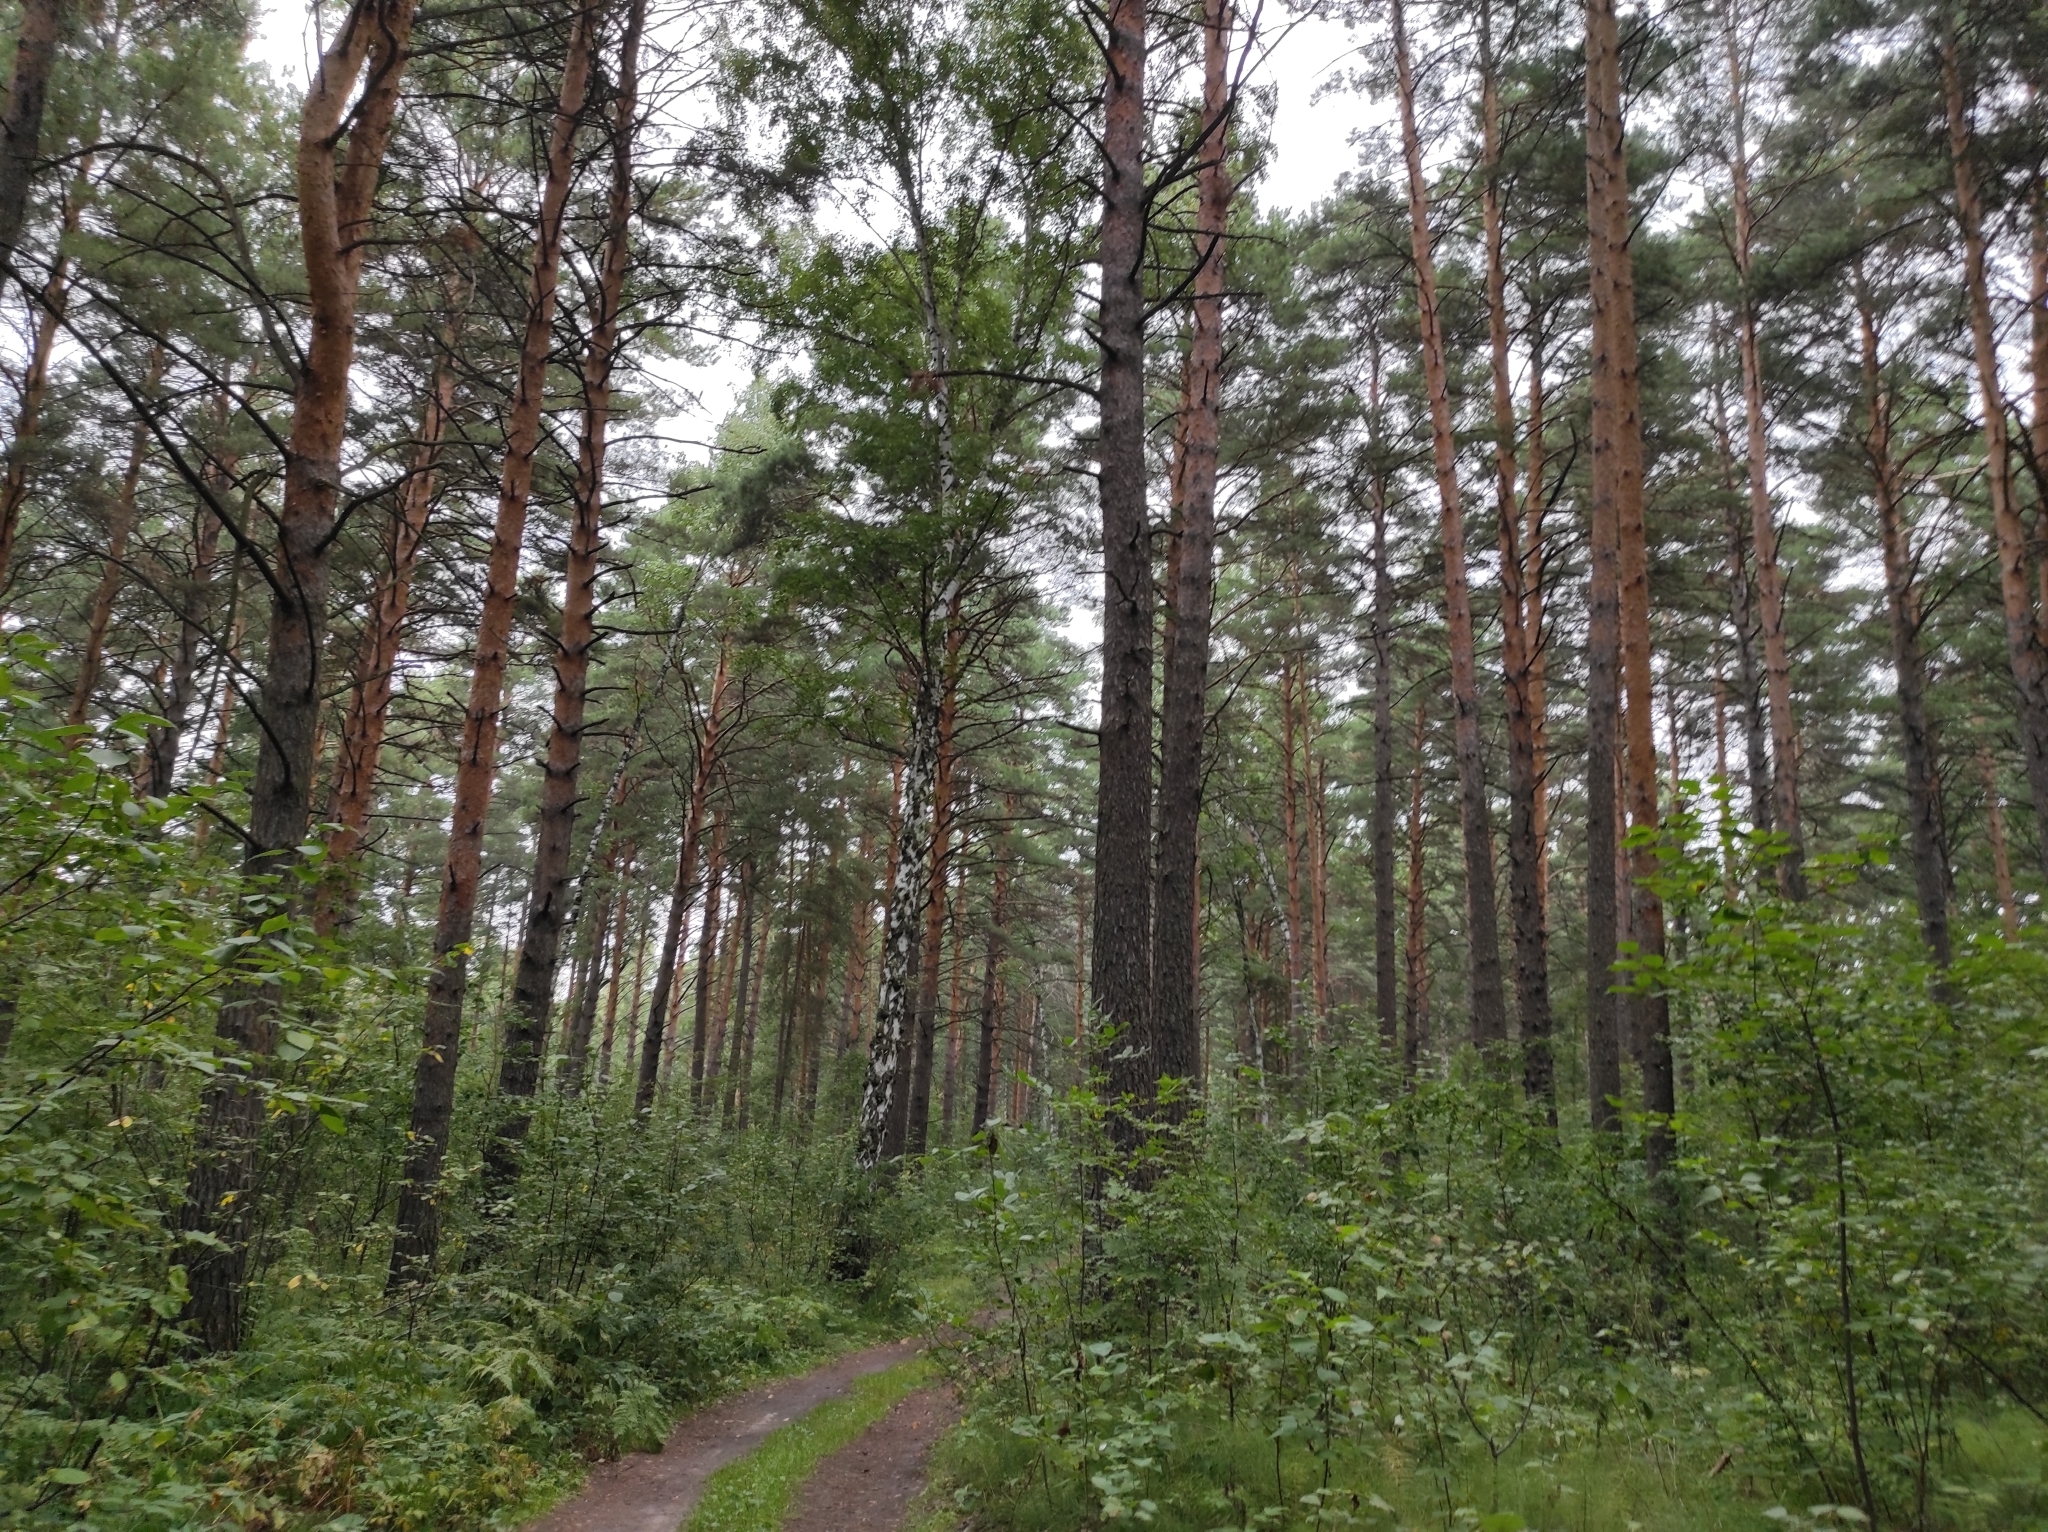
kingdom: Plantae
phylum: Tracheophyta
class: Pinopsida
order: Pinales
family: Pinaceae
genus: Pinus
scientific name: Pinus sylvestris
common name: Scots pine
